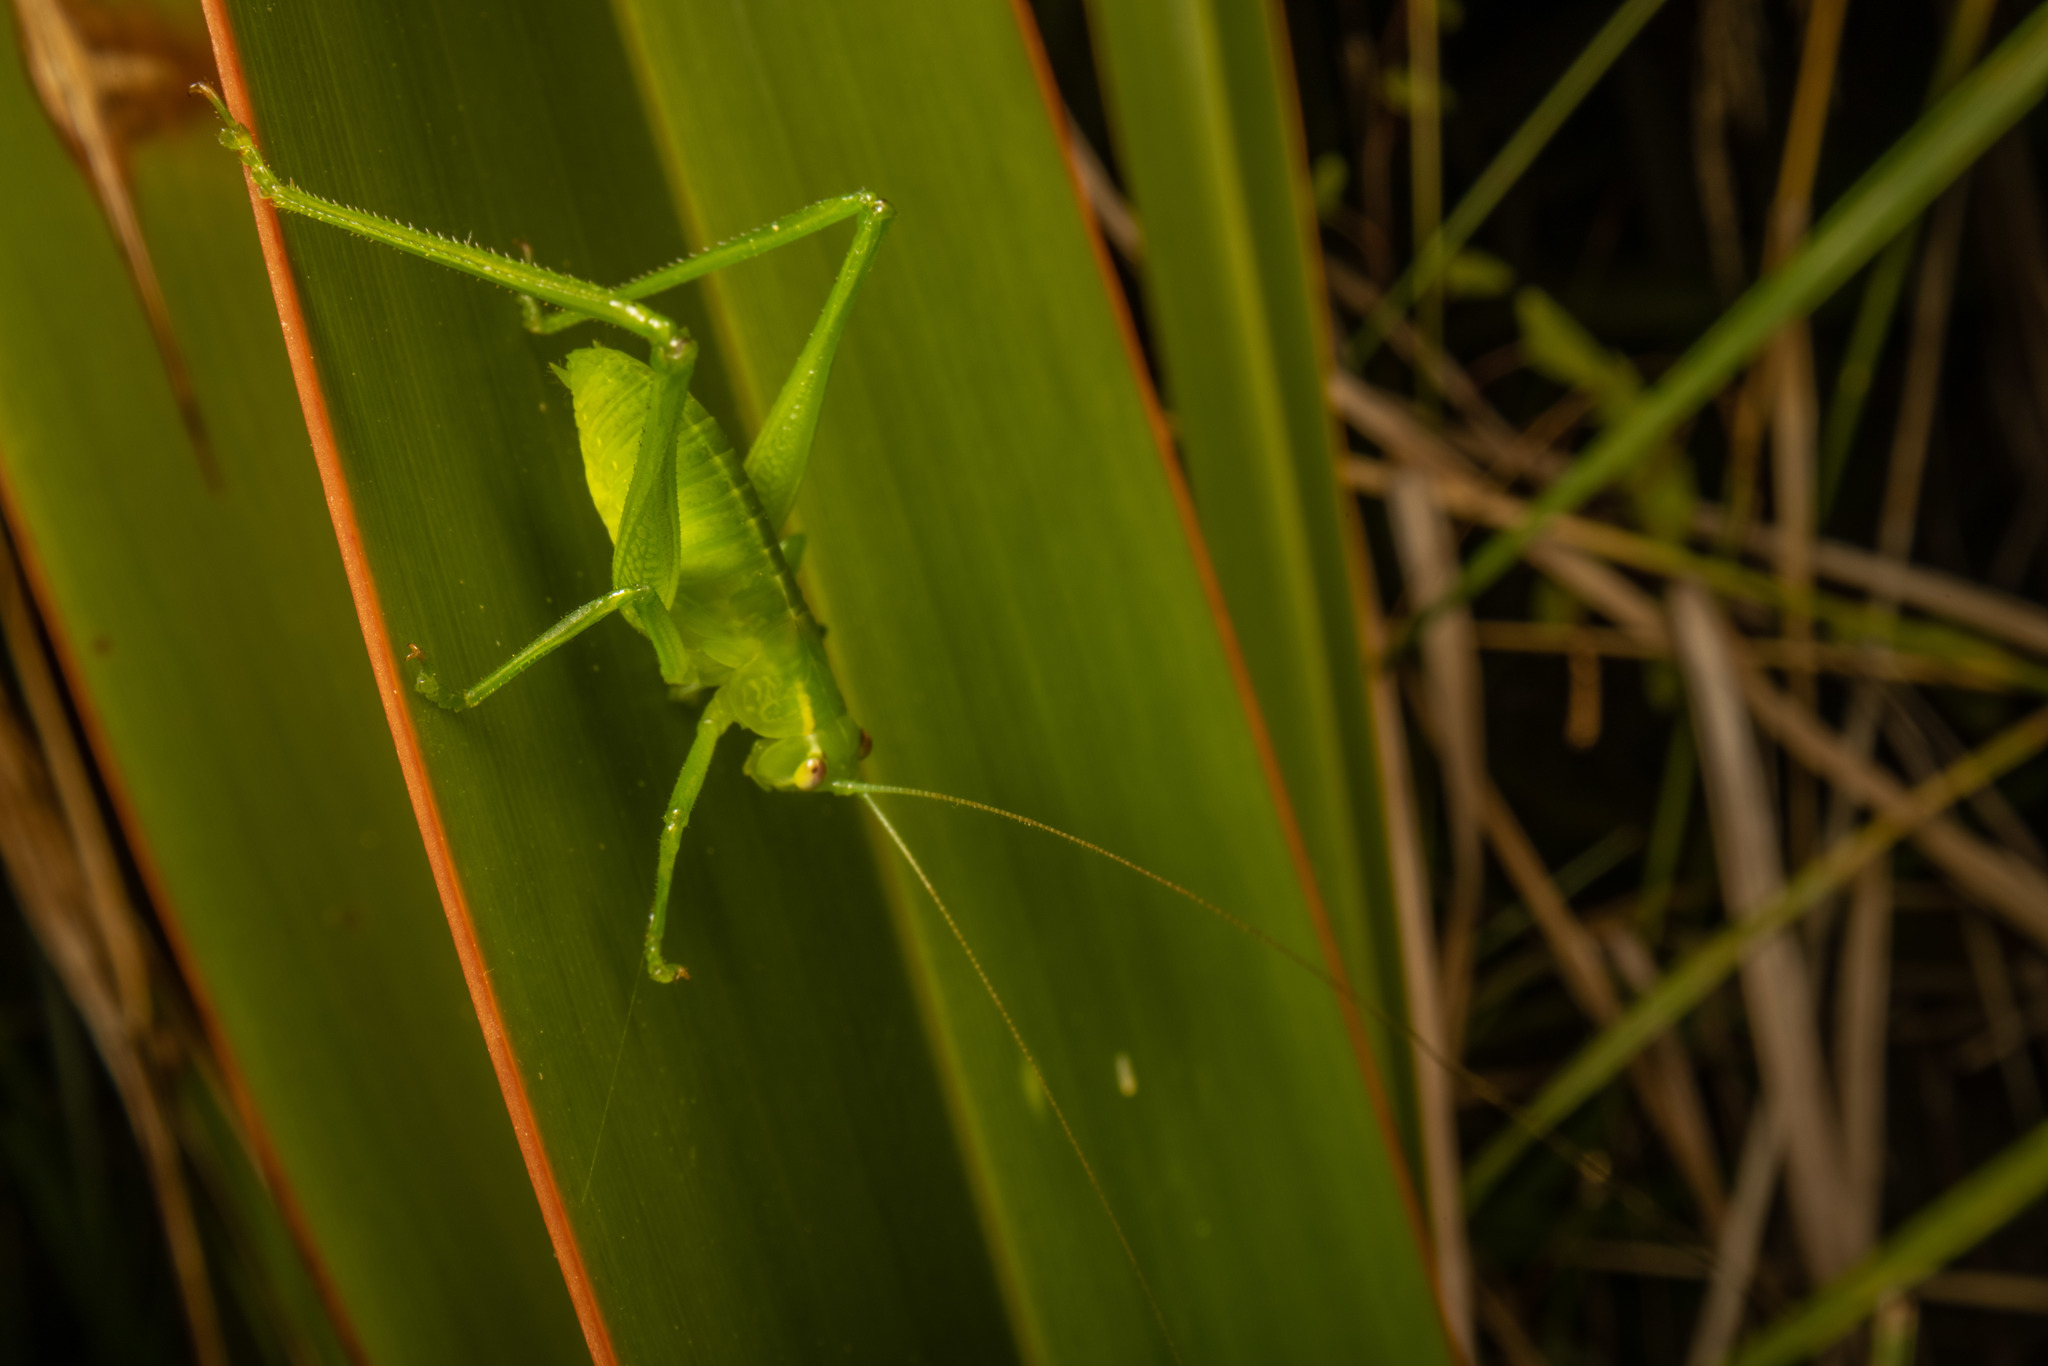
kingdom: Animalia
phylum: Arthropoda
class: Insecta
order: Orthoptera
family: Tettigoniidae
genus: Caedicia
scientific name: Caedicia simplex
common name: Common garden katydid
